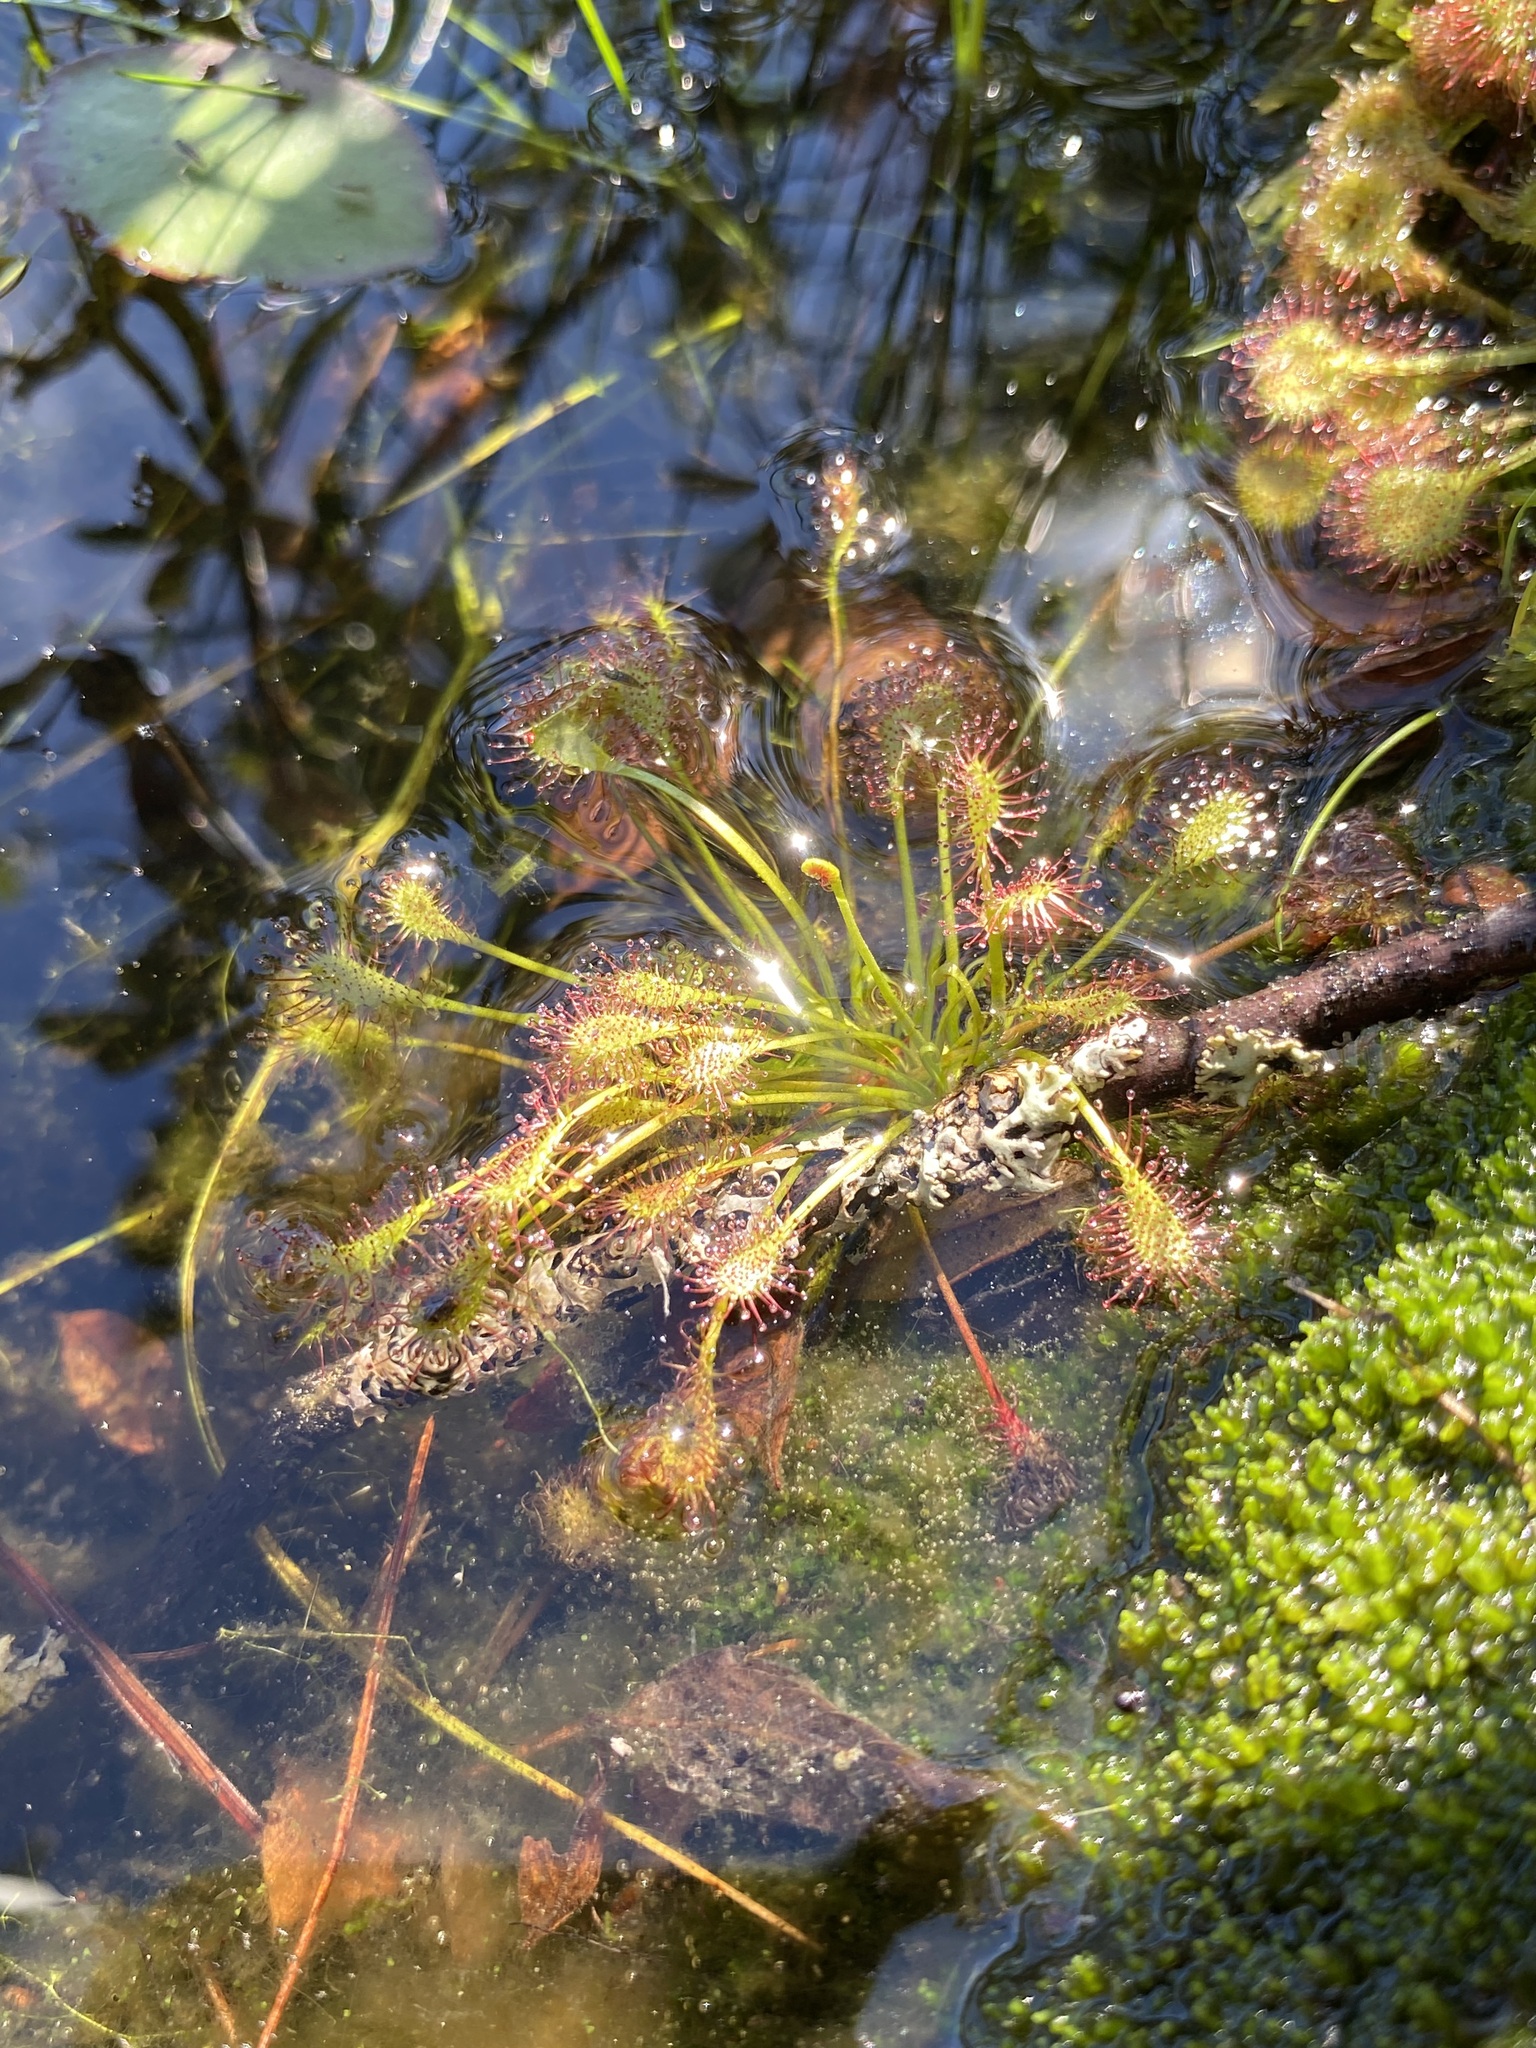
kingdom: Plantae
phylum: Tracheophyta
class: Magnoliopsida
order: Caryophyllales
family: Droseraceae
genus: Drosera
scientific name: Drosera intermedia
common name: Oblong-leaved sundew
